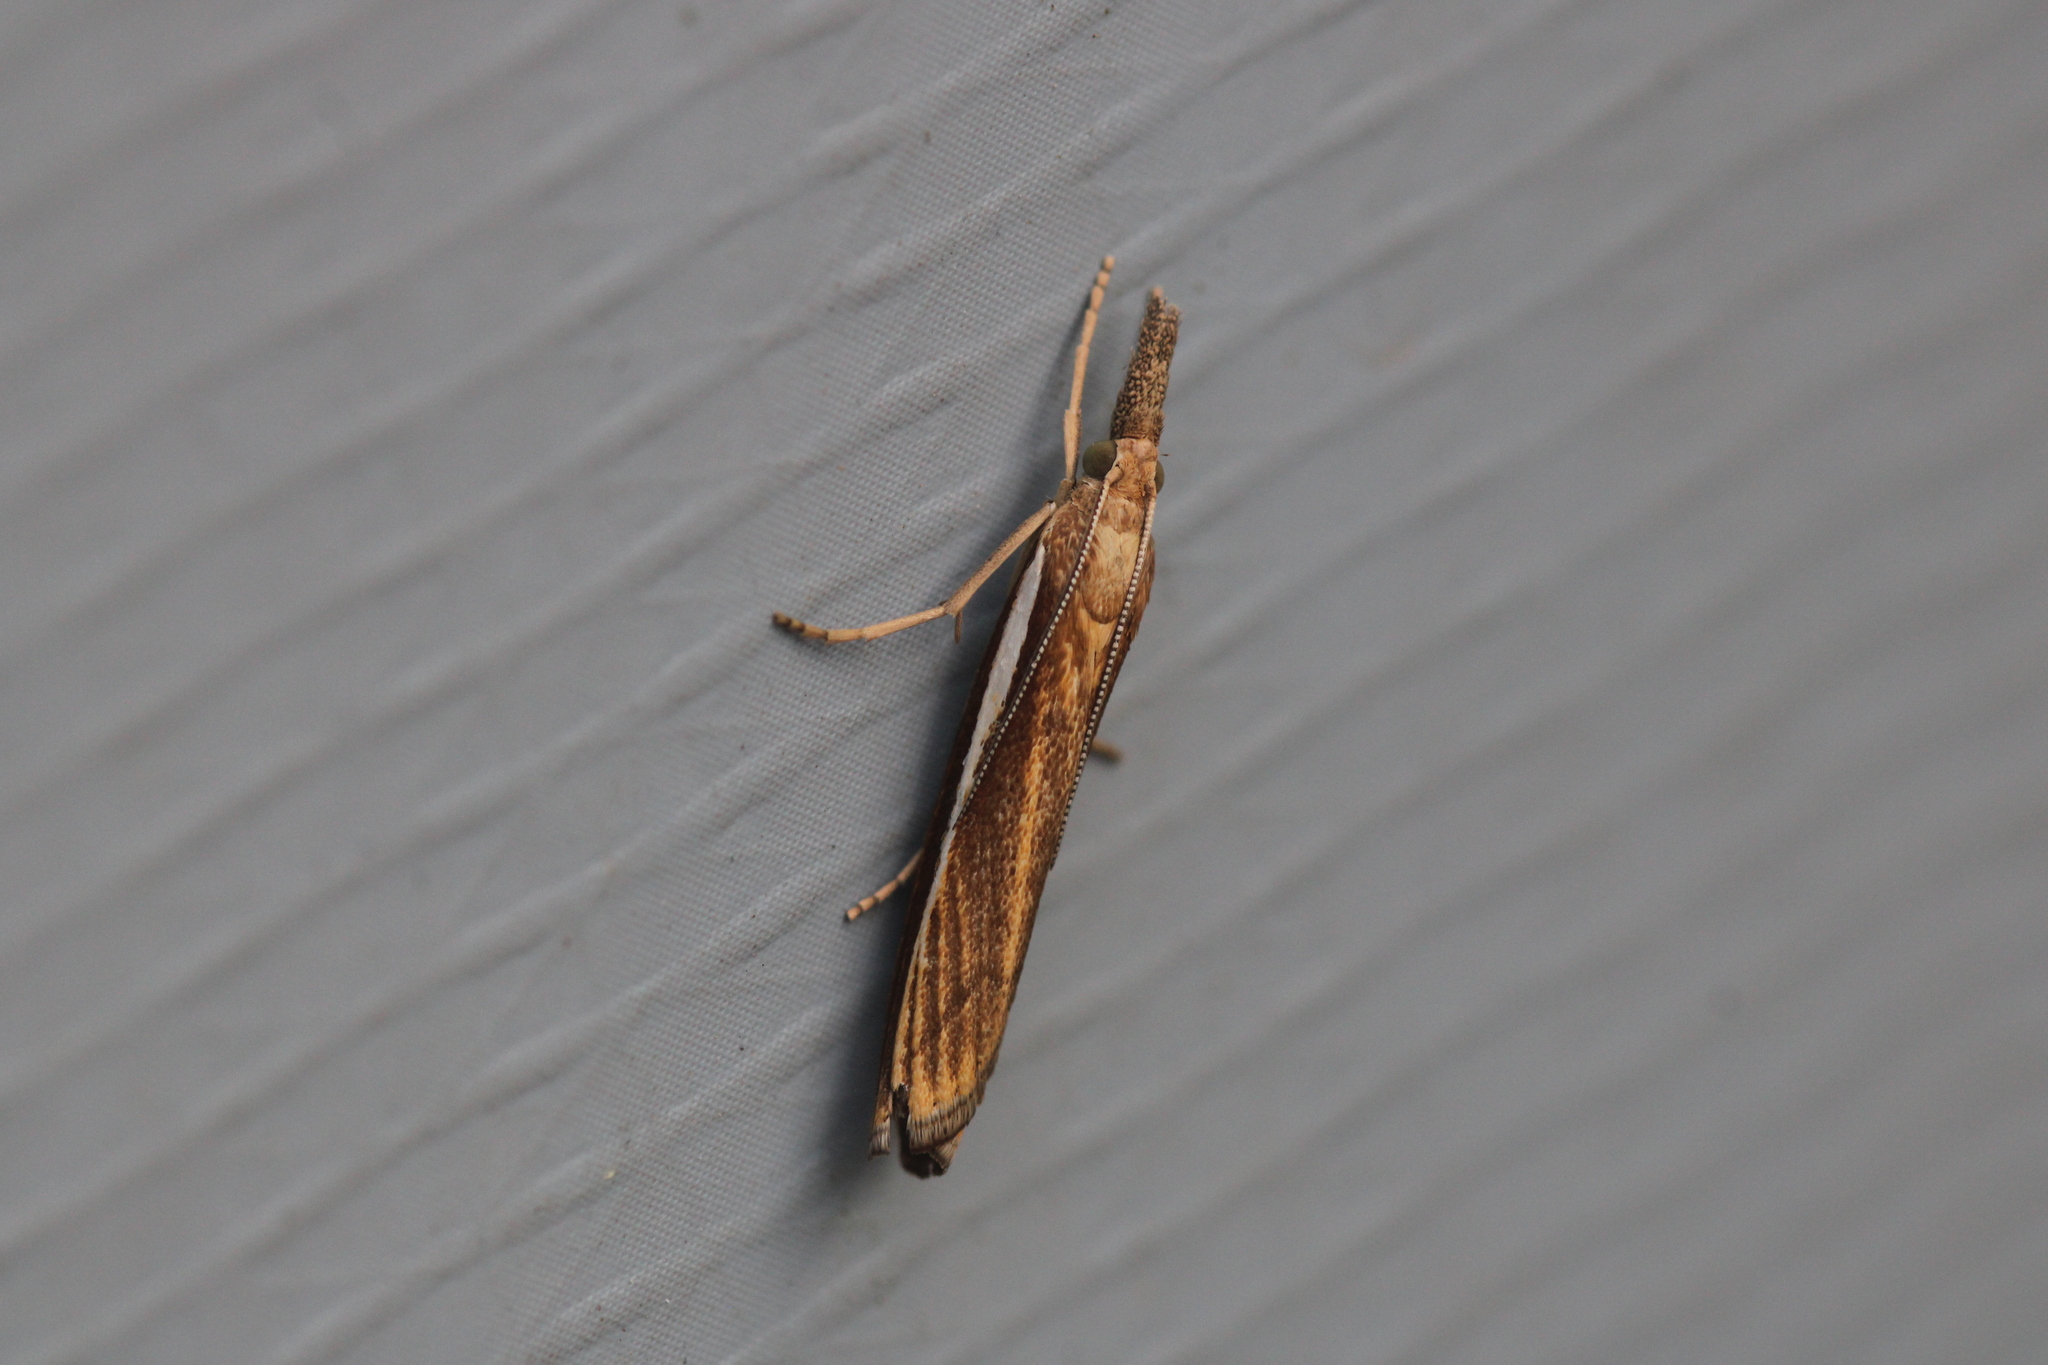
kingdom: Animalia
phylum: Arthropoda
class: Insecta
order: Lepidoptera
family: Crambidae
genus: Agriphila
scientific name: Agriphila tristellus
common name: Common grass-veneer
